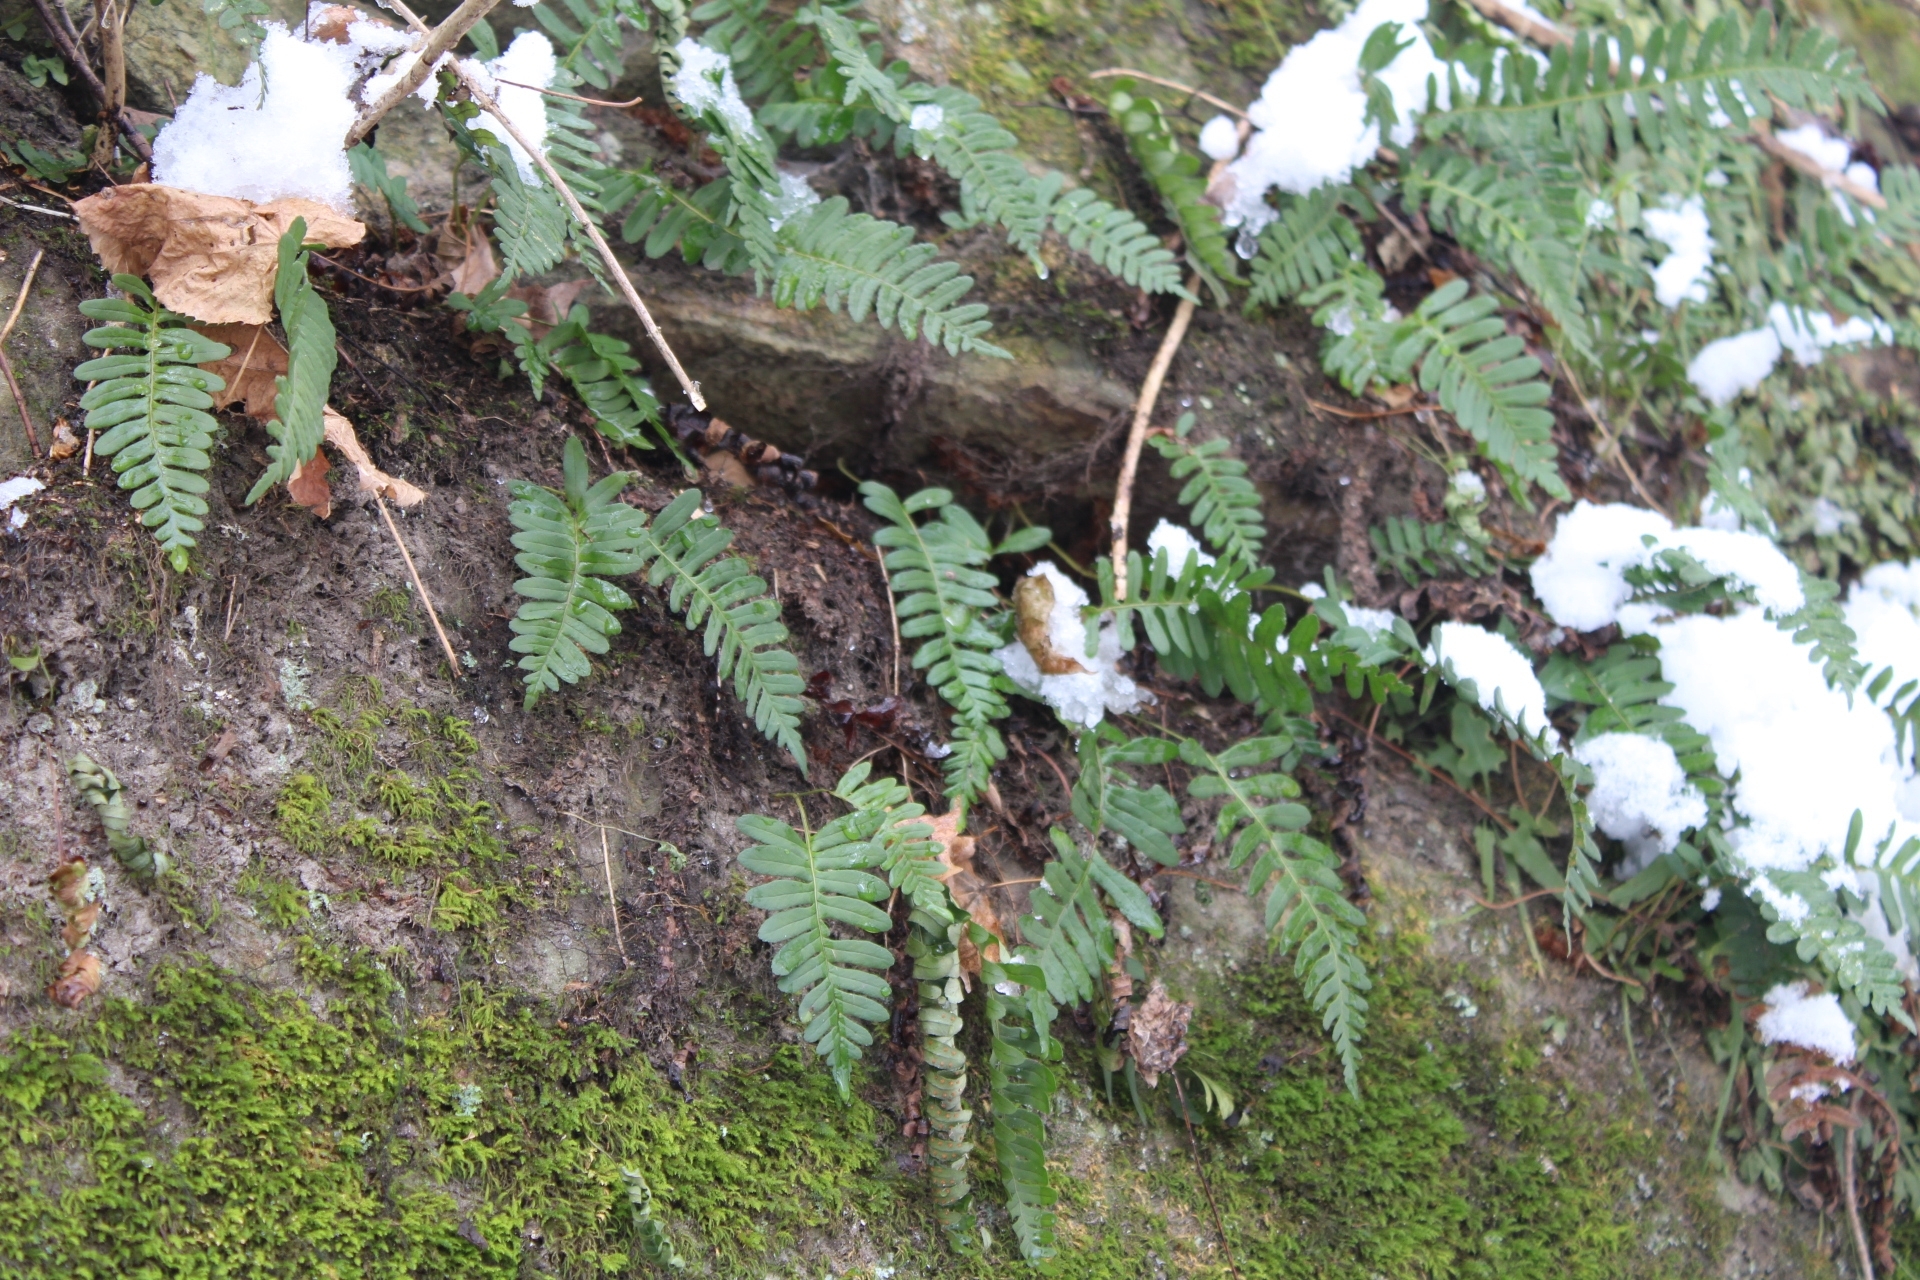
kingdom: Plantae
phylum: Tracheophyta
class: Polypodiopsida
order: Polypodiales
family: Polypodiaceae
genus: Polypodium
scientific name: Polypodium virginianum
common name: American wall fern
